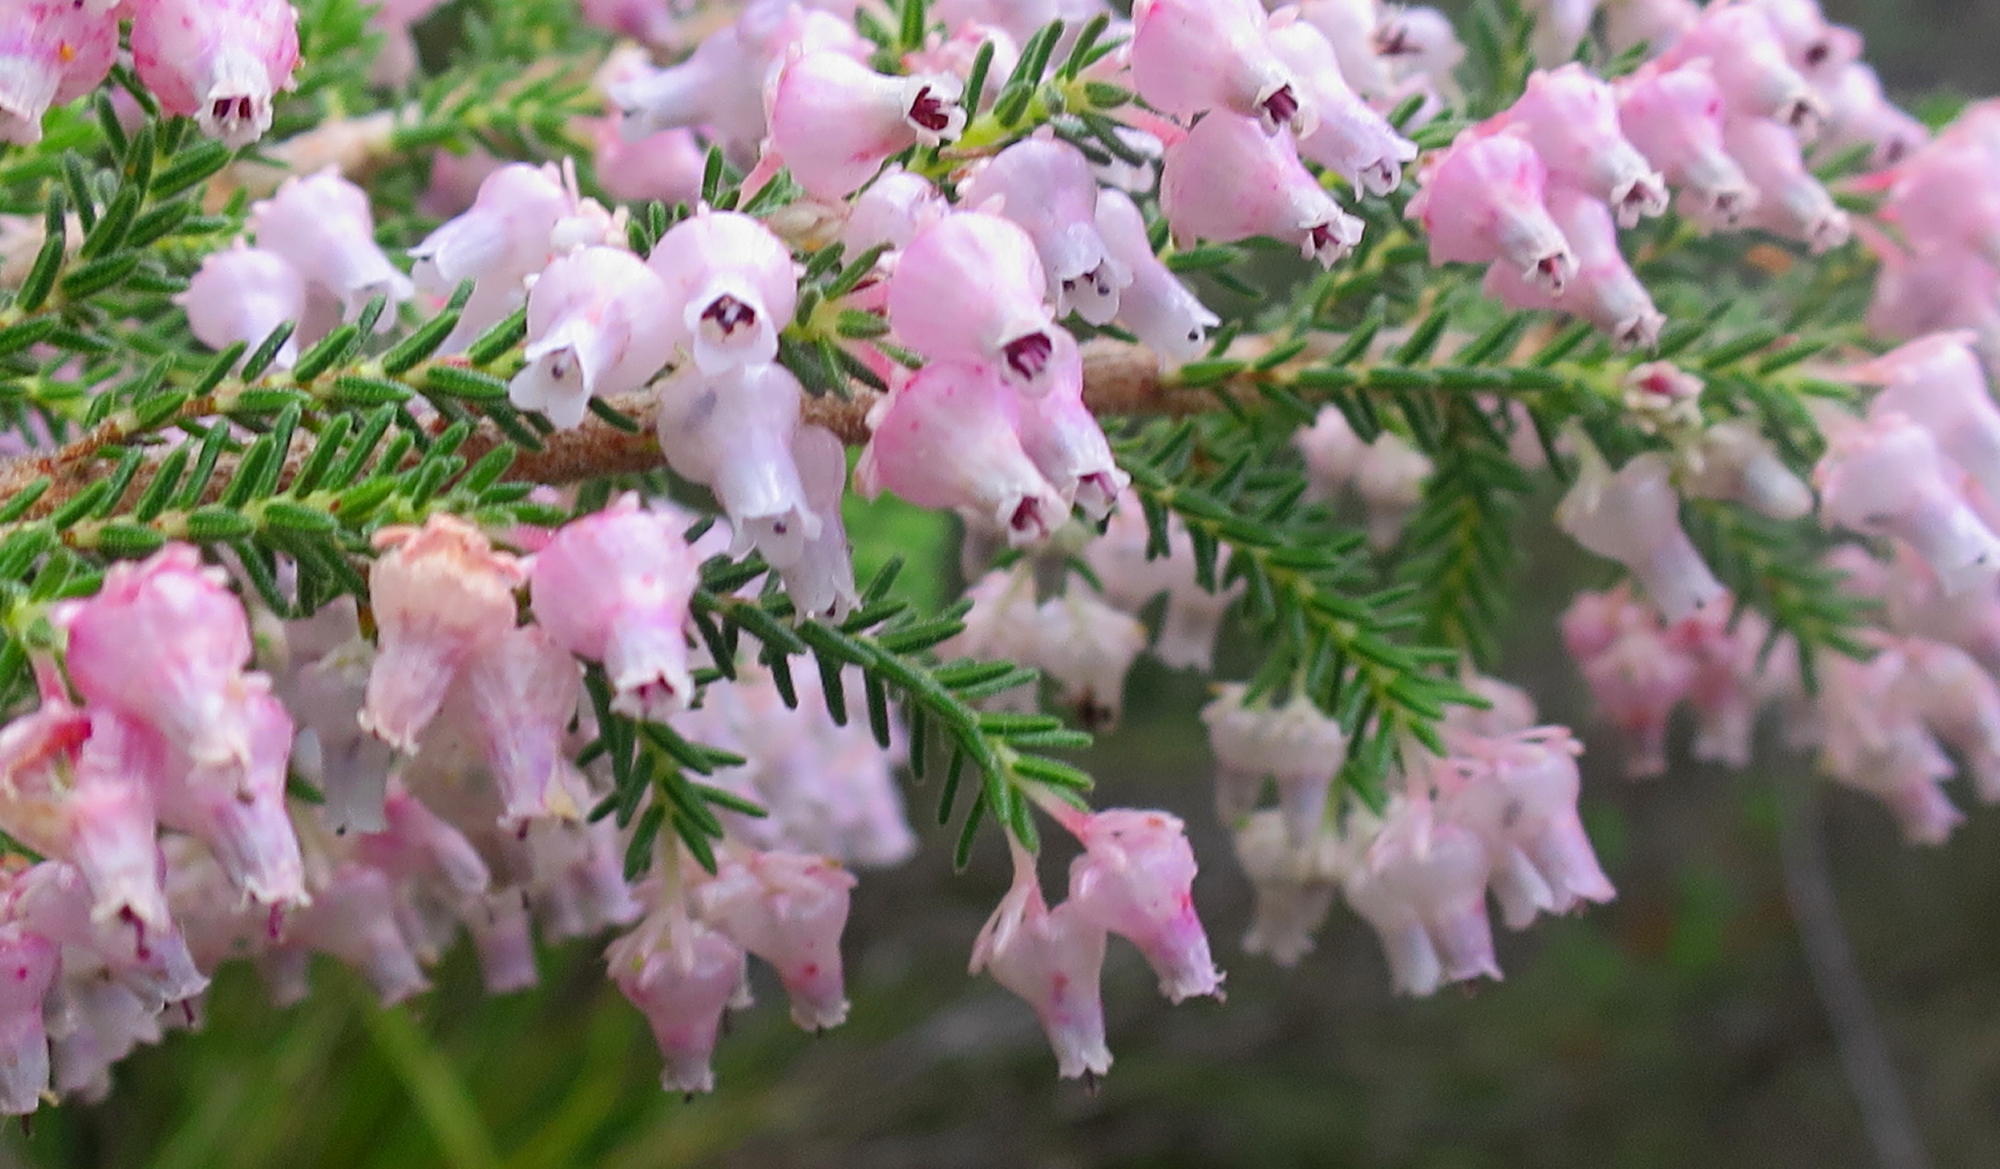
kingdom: Plantae
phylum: Tracheophyta
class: Magnoliopsida
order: Ericales
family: Ericaceae
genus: Erica
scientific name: Erica glomiflora
